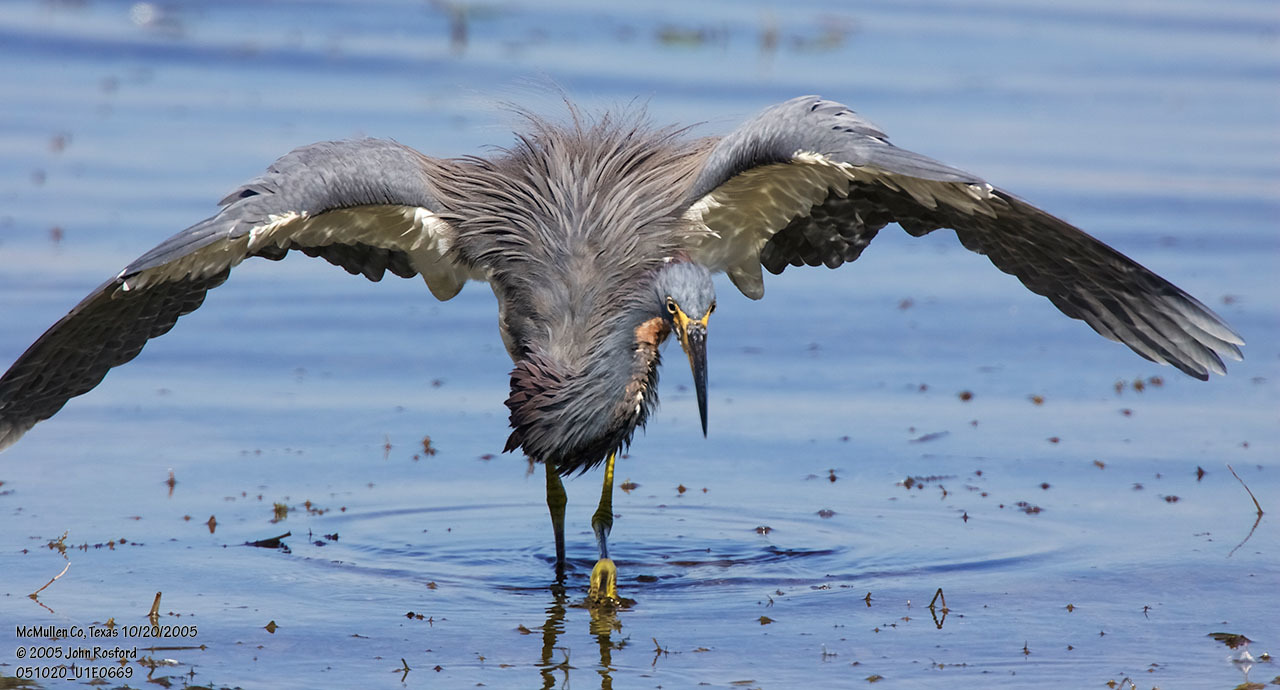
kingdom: Animalia
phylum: Chordata
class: Aves
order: Pelecaniformes
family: Ardeidae
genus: Egretta
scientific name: Egretta tricolor
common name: Tricolored heron
